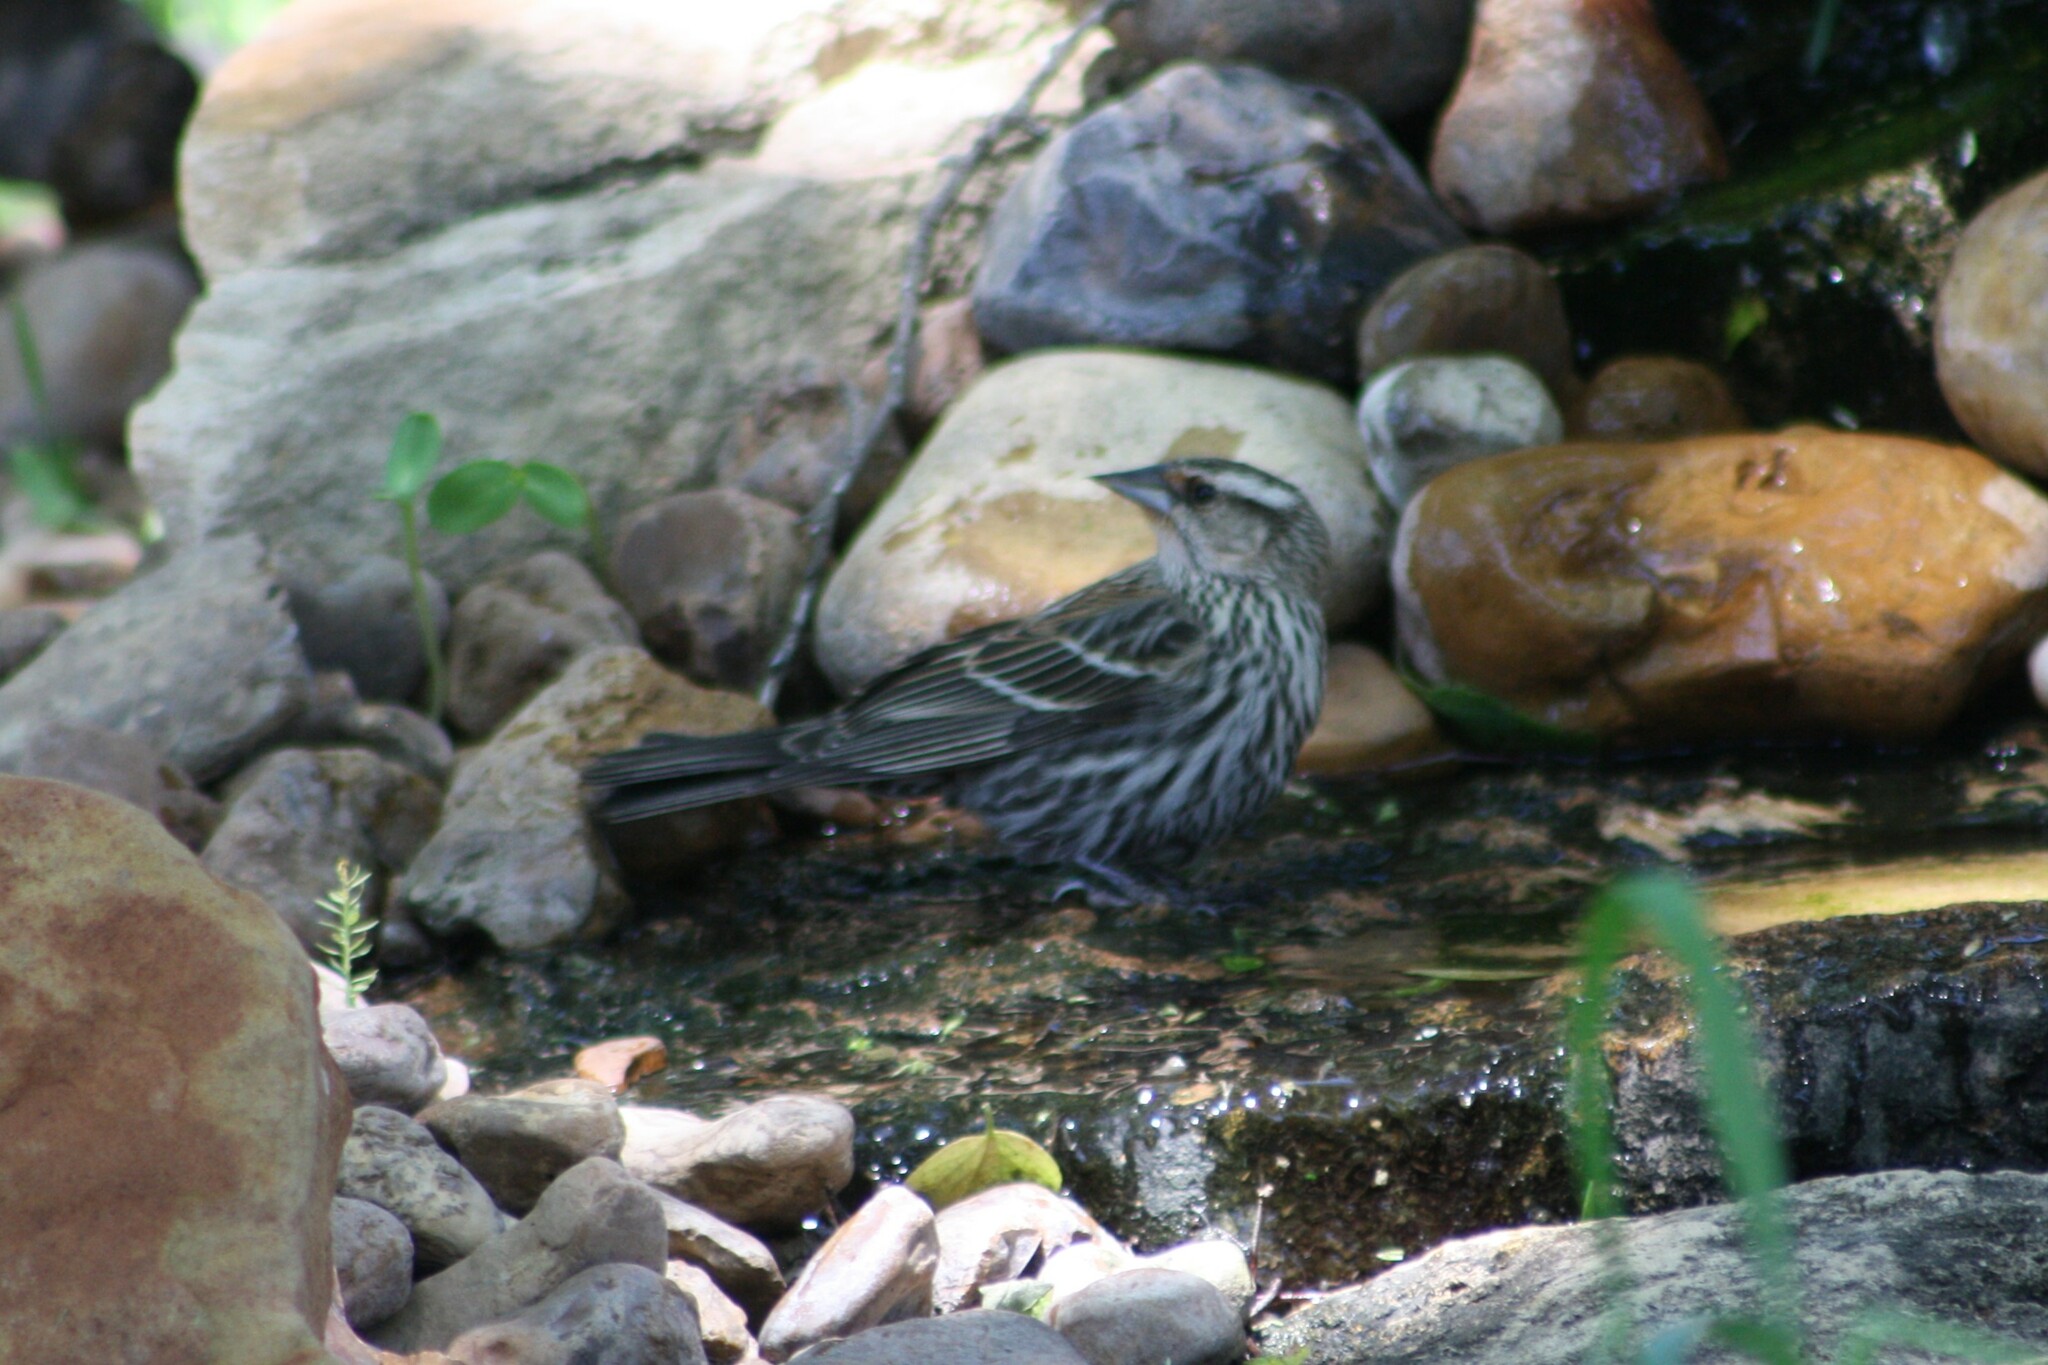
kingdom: Animalia
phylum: Chordata
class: Aves
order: Passeriformes
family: Icteridae
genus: Agelaius
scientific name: Agelaius phoeniceus
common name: Red-winged blackbird
